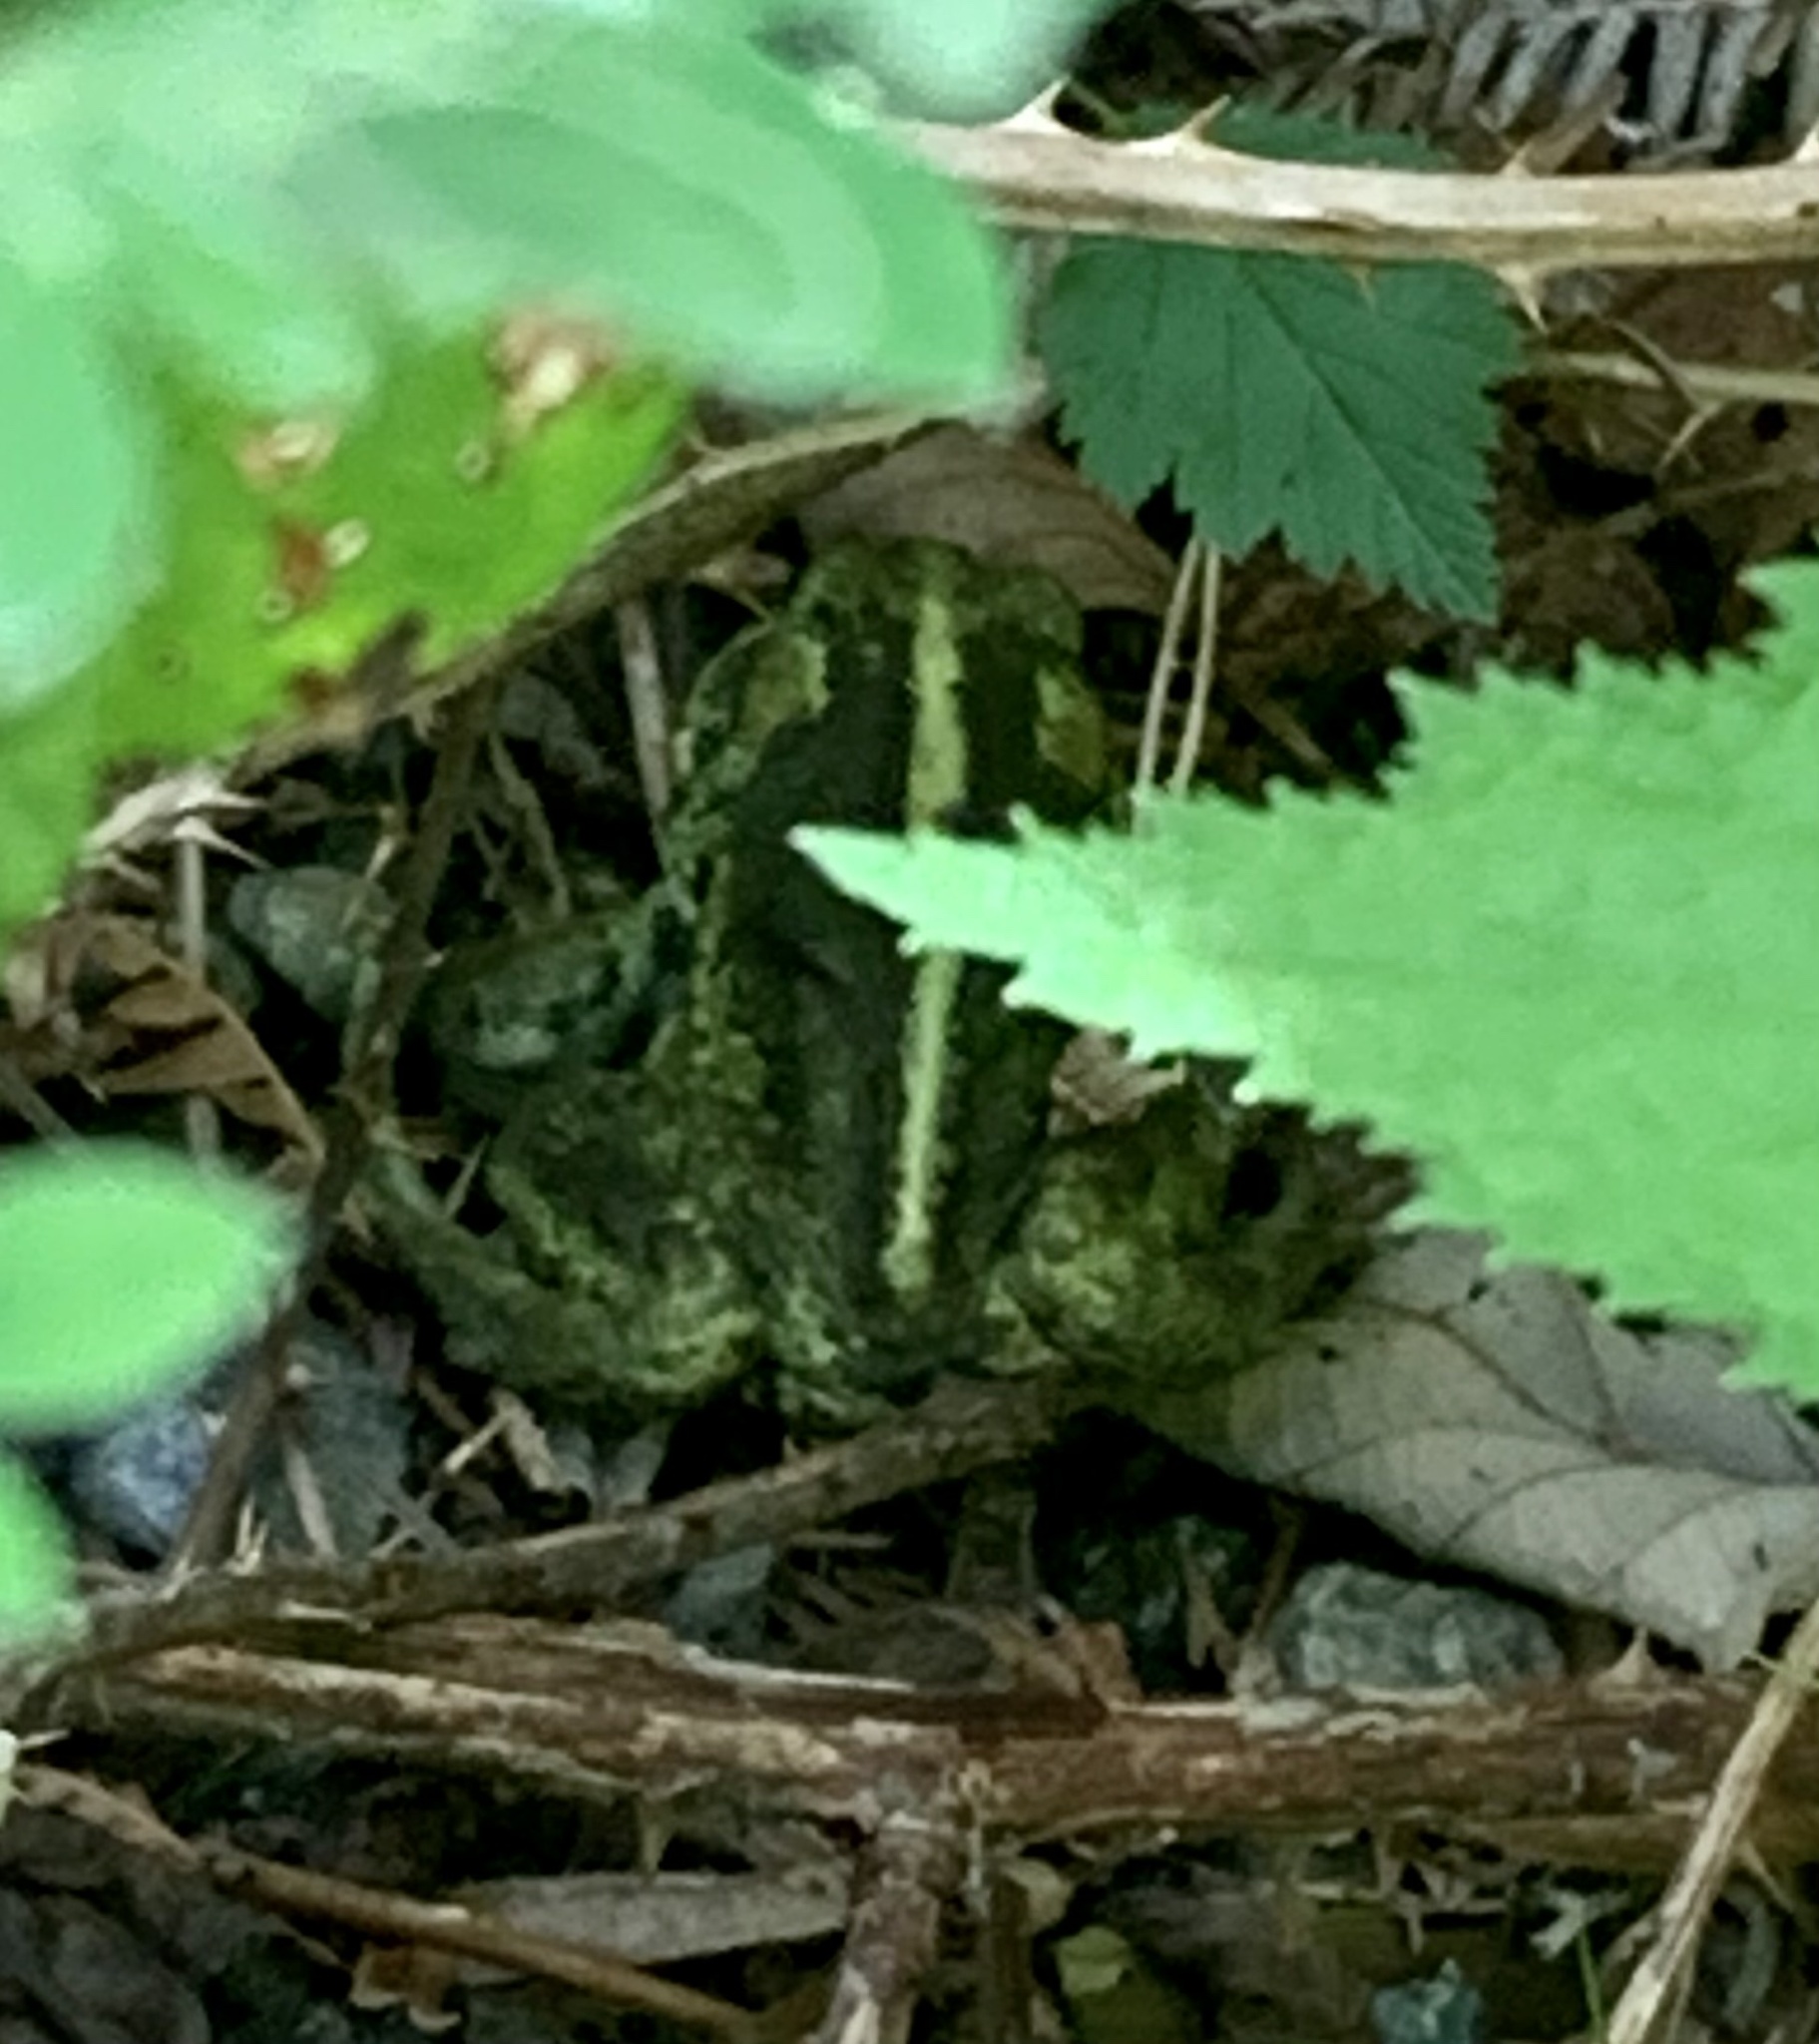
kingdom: Animalia
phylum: Chordata
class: Amphibia
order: Anura
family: Bufonidae
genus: Anaxyrus
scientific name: Anaxyrus boreas
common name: Western toad
